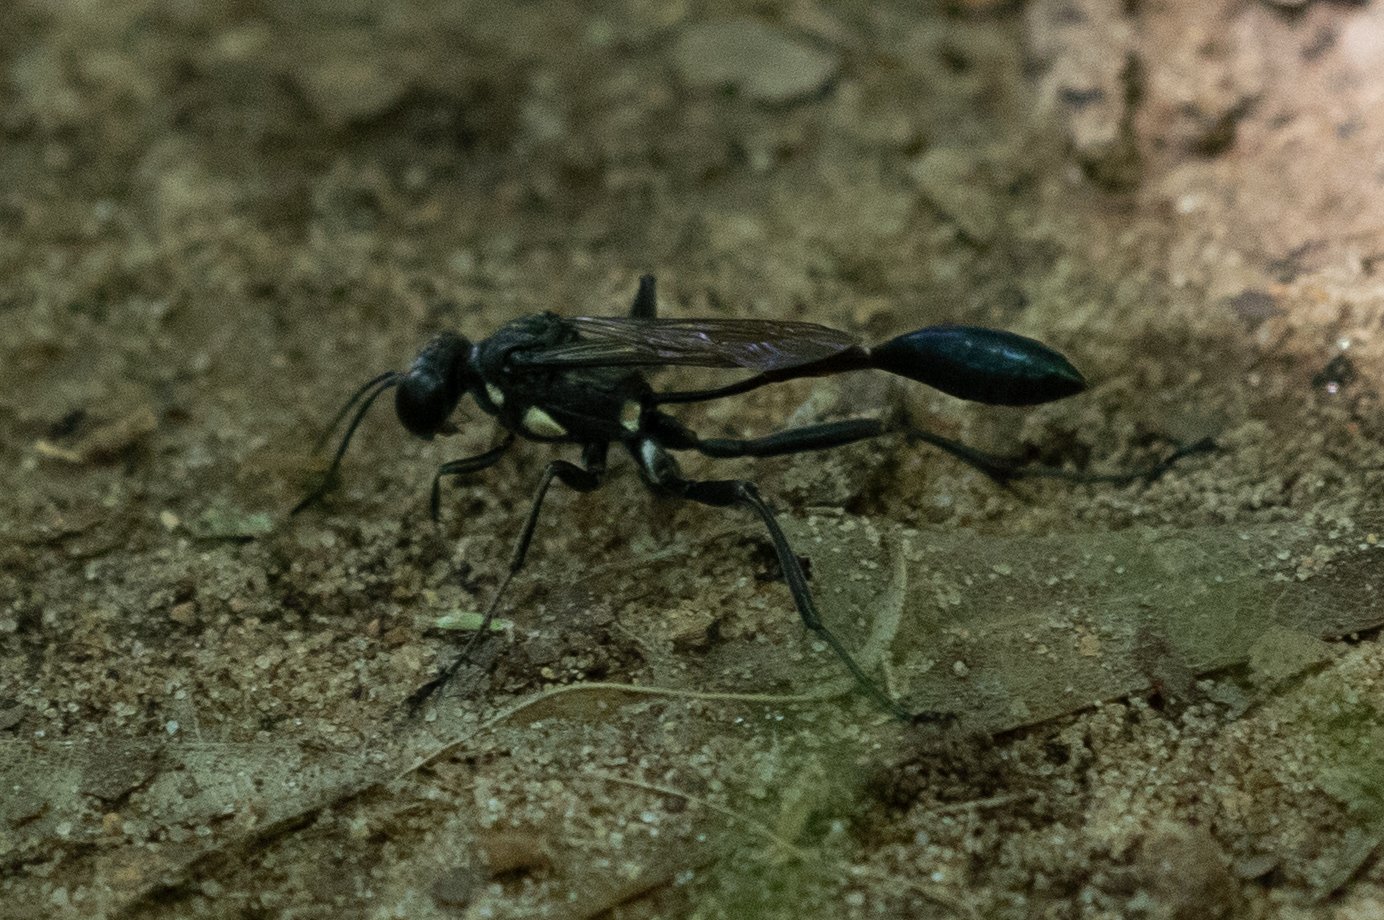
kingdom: Animalia
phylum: Arthropoda
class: Insecta
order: Hymenoptera
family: Sphecidae
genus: Eremnophila
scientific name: Eremnophila aureonotata
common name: Gold-marked thread-waisted wasp
